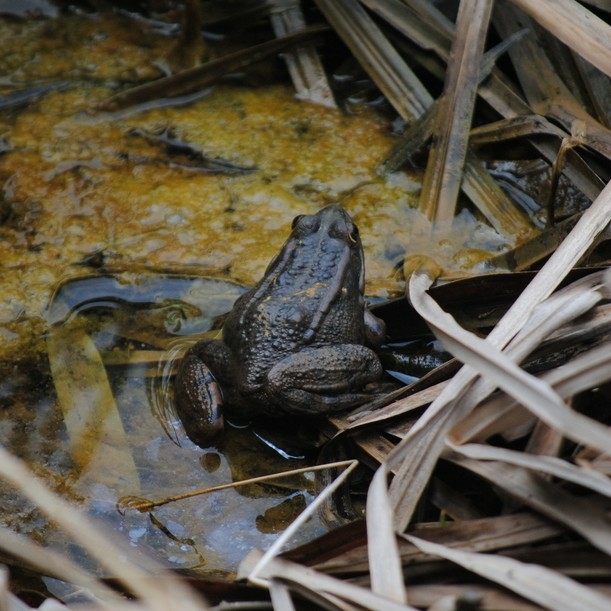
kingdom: Animalia
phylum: Chordata
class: Amphibia
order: Anura
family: Ranidae
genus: Pelophylax
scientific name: Pelophylax perezi
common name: Perez's frog
